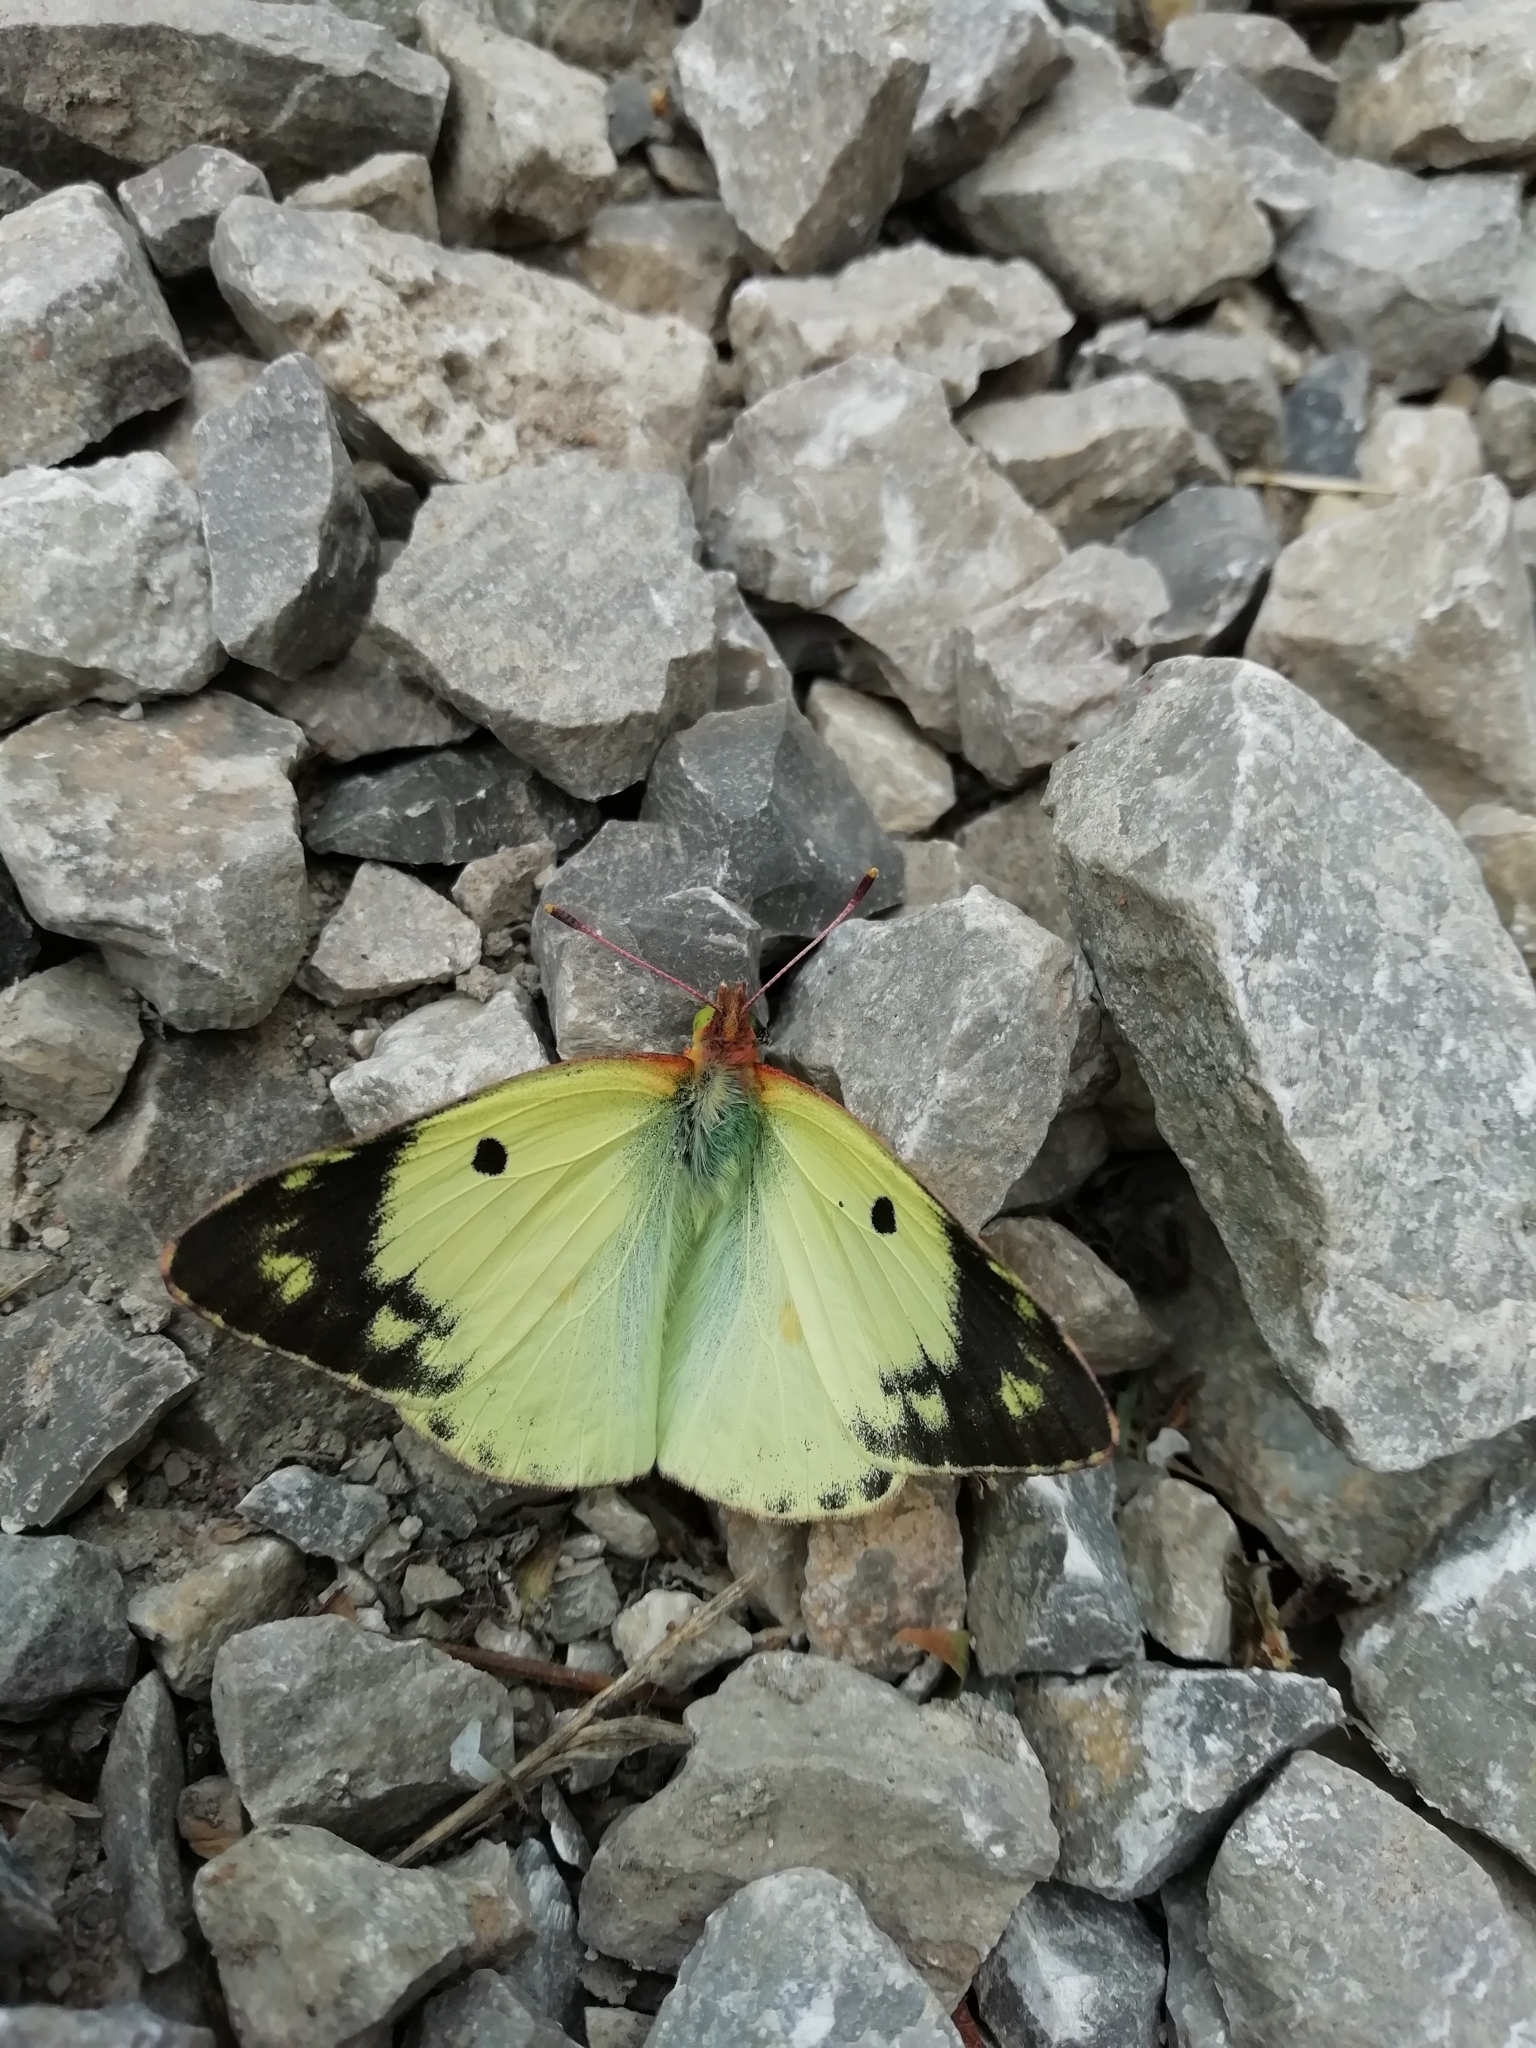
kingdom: Animalia
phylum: Arthropoda
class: Insecta
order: Lepidoptera
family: Pieridae
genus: Colias
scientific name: Colias hyale
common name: Pale clouded yellow
